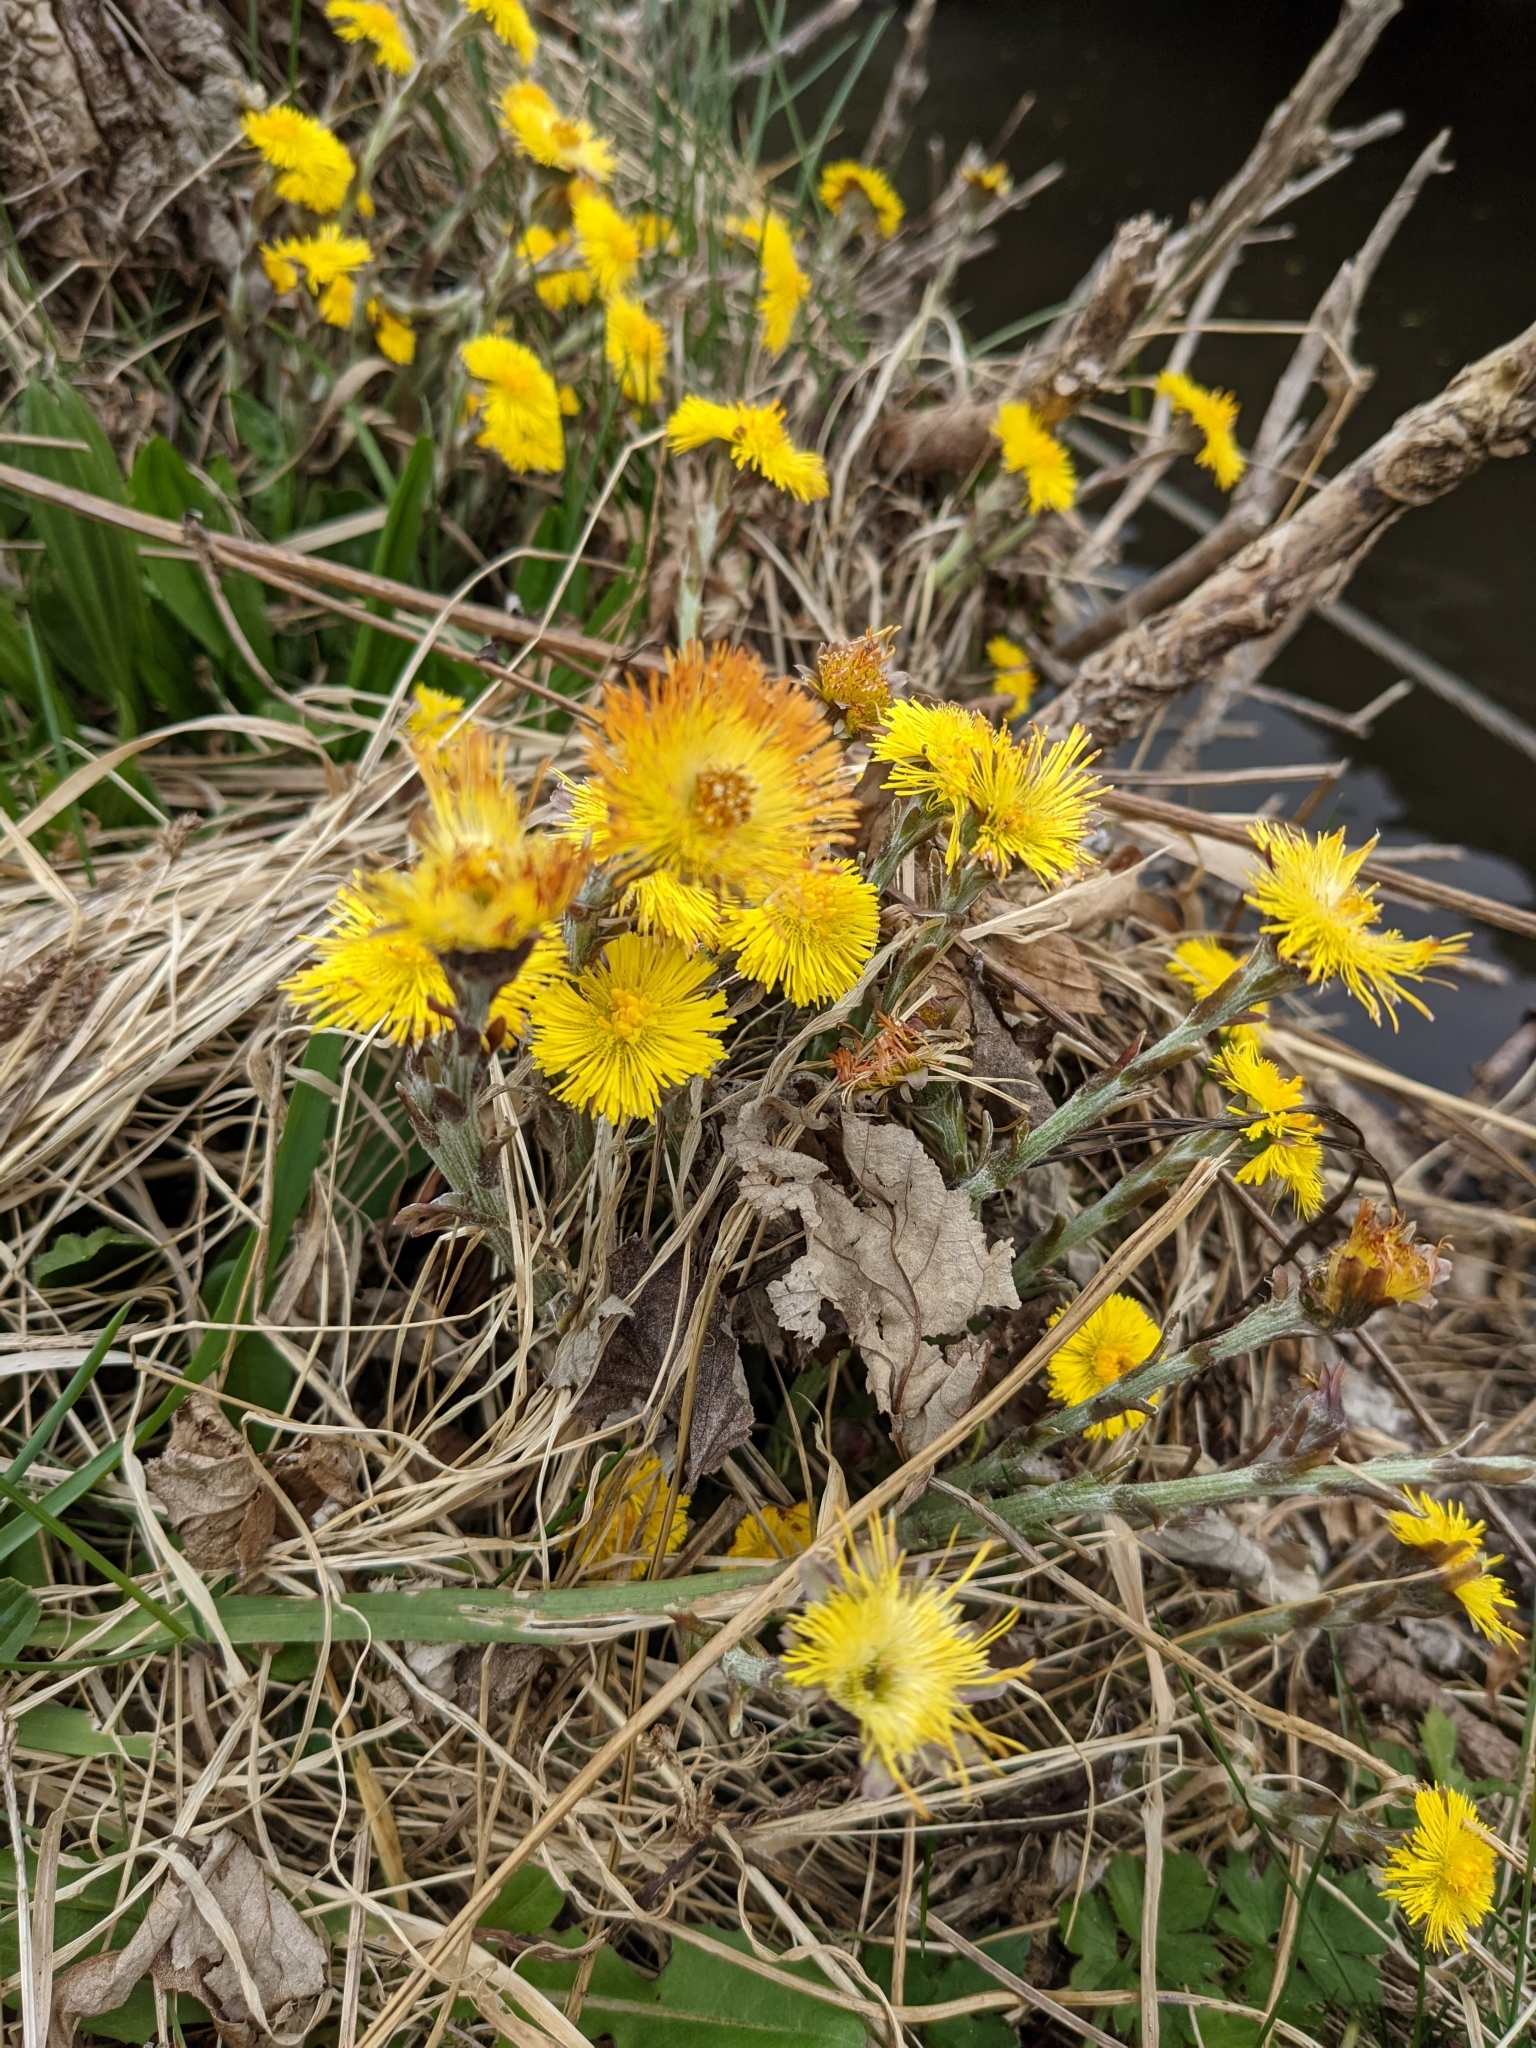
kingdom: Plantae
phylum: Tracheophyta
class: Magnoliopsida
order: Asterales
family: Asteraceae
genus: Tussilago
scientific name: Tussilago farfara
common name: Coltsfoot
